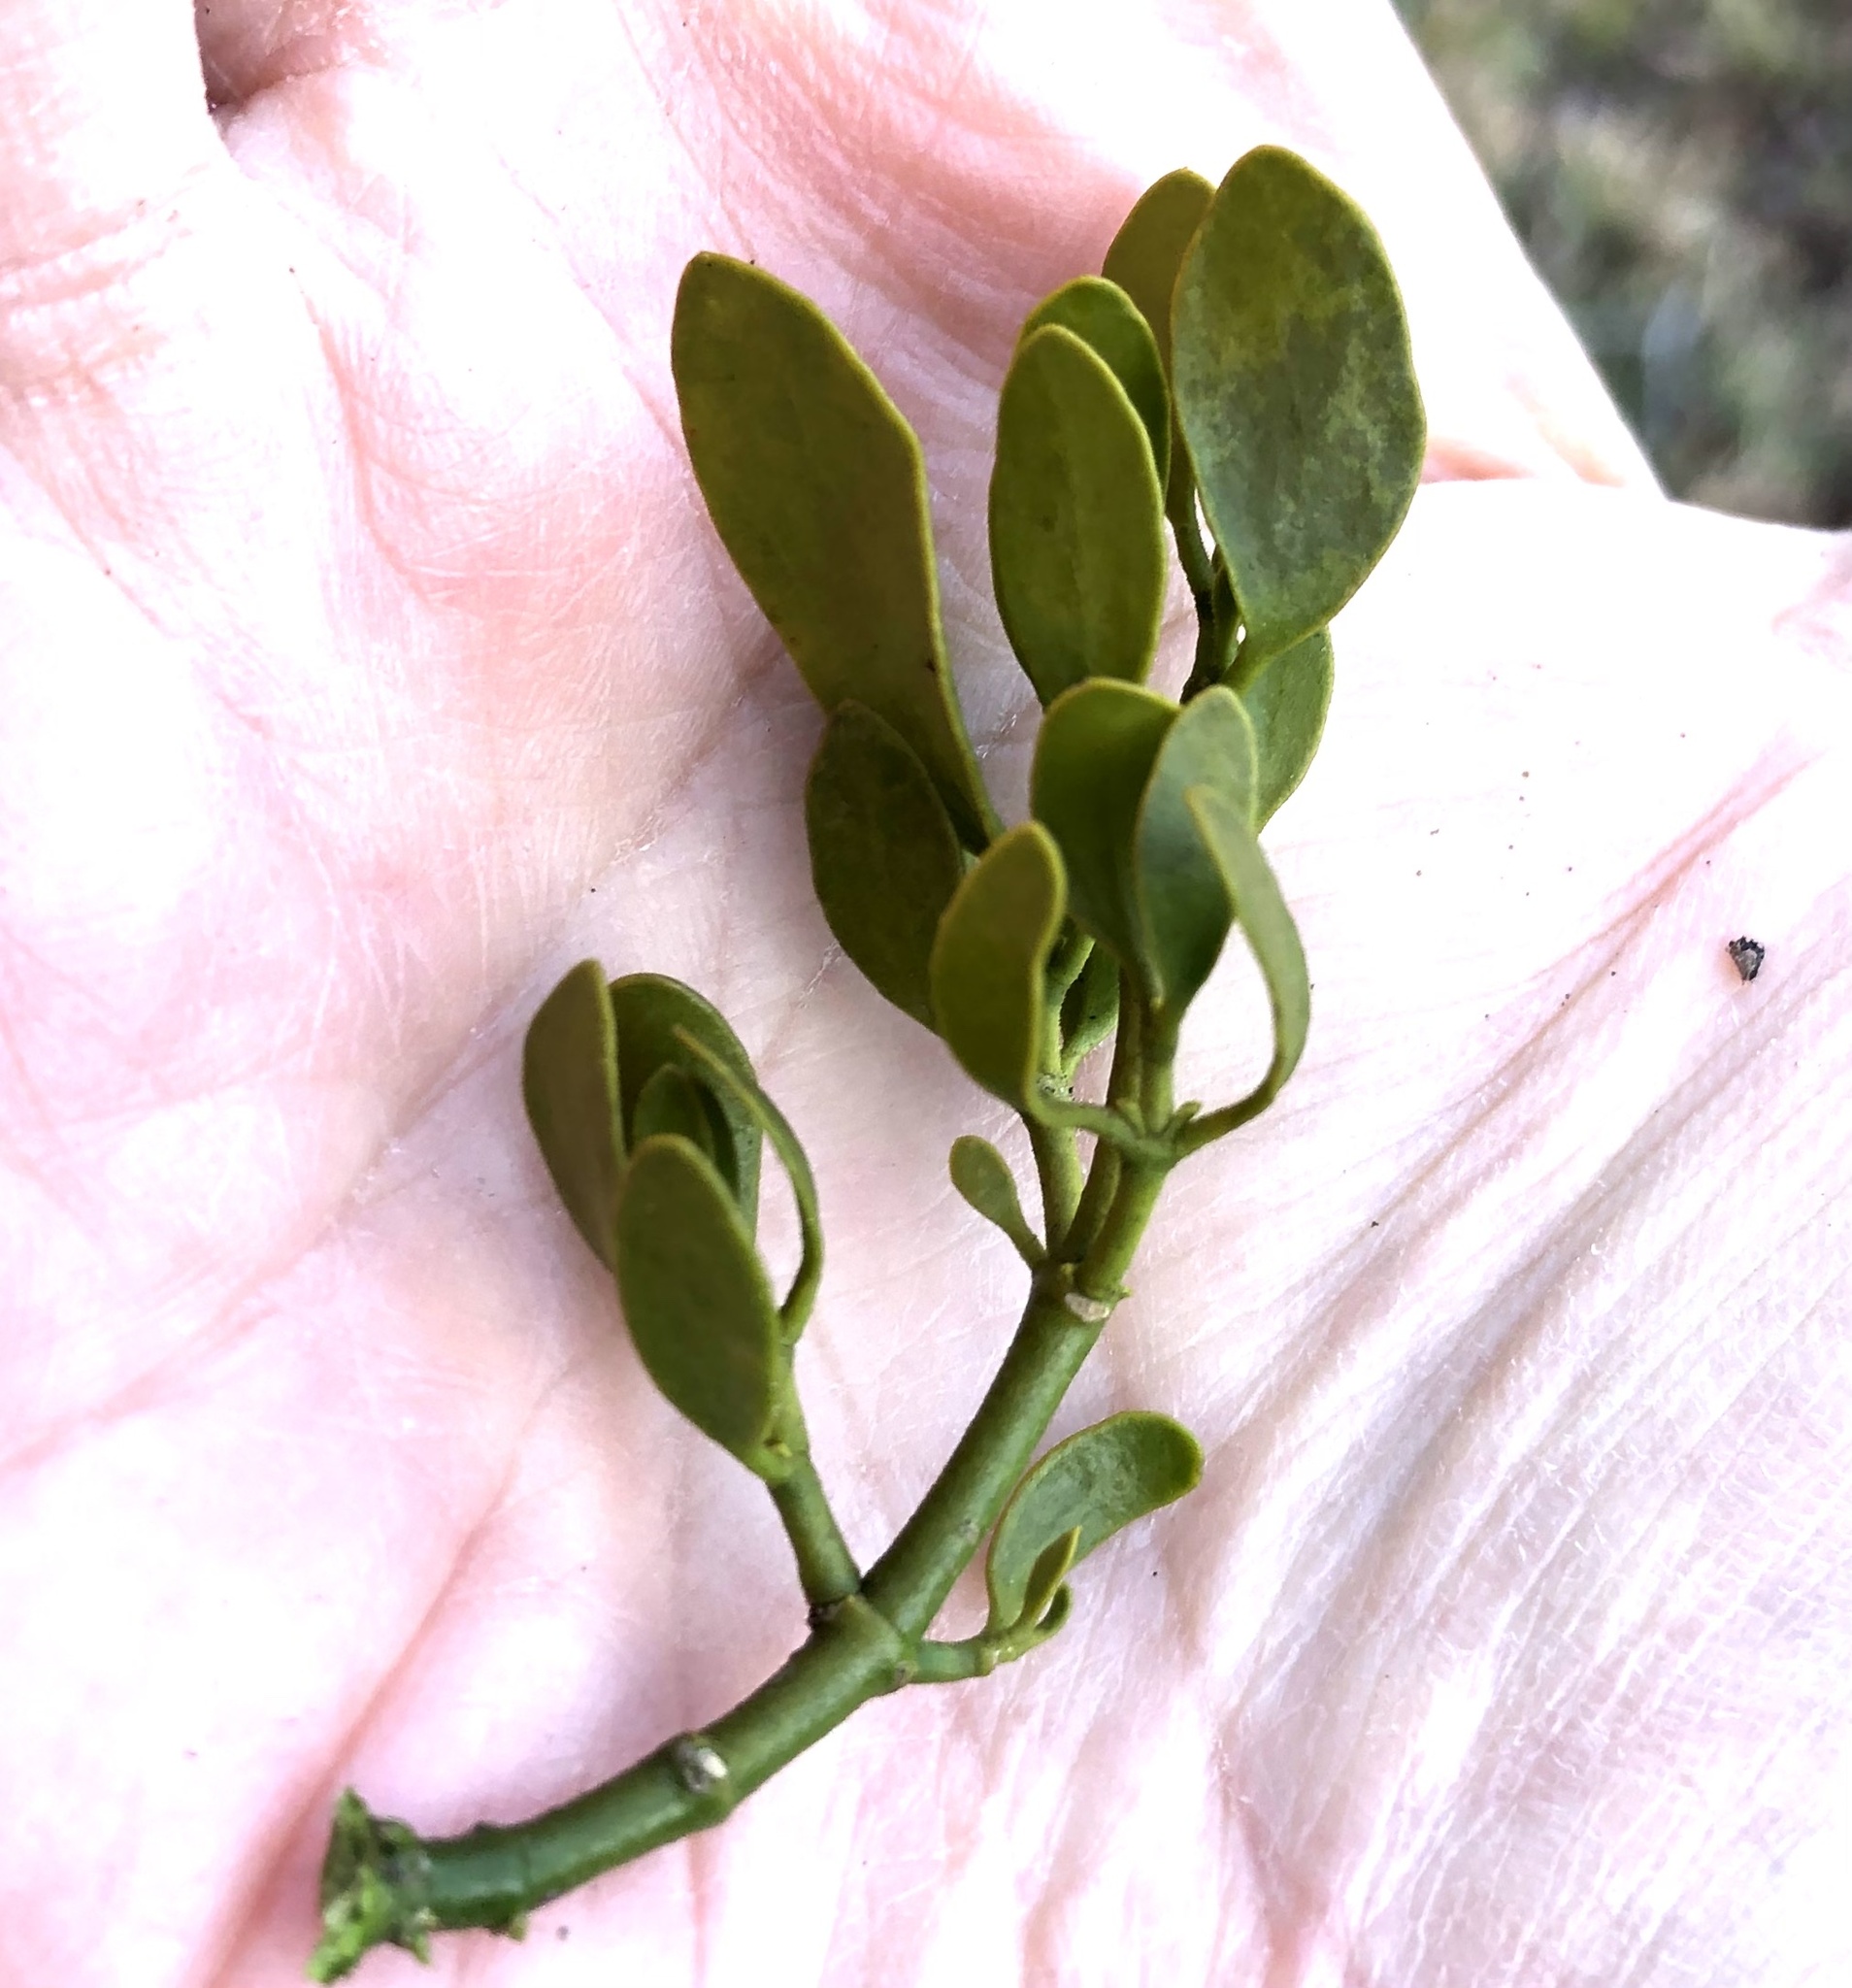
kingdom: Plantae
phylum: Tracheophyta
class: Magnoliopsida
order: Santalales
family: Viscaceae
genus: Phoradendron
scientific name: Phoradendron leucarpum
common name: Pacific mistletoe
